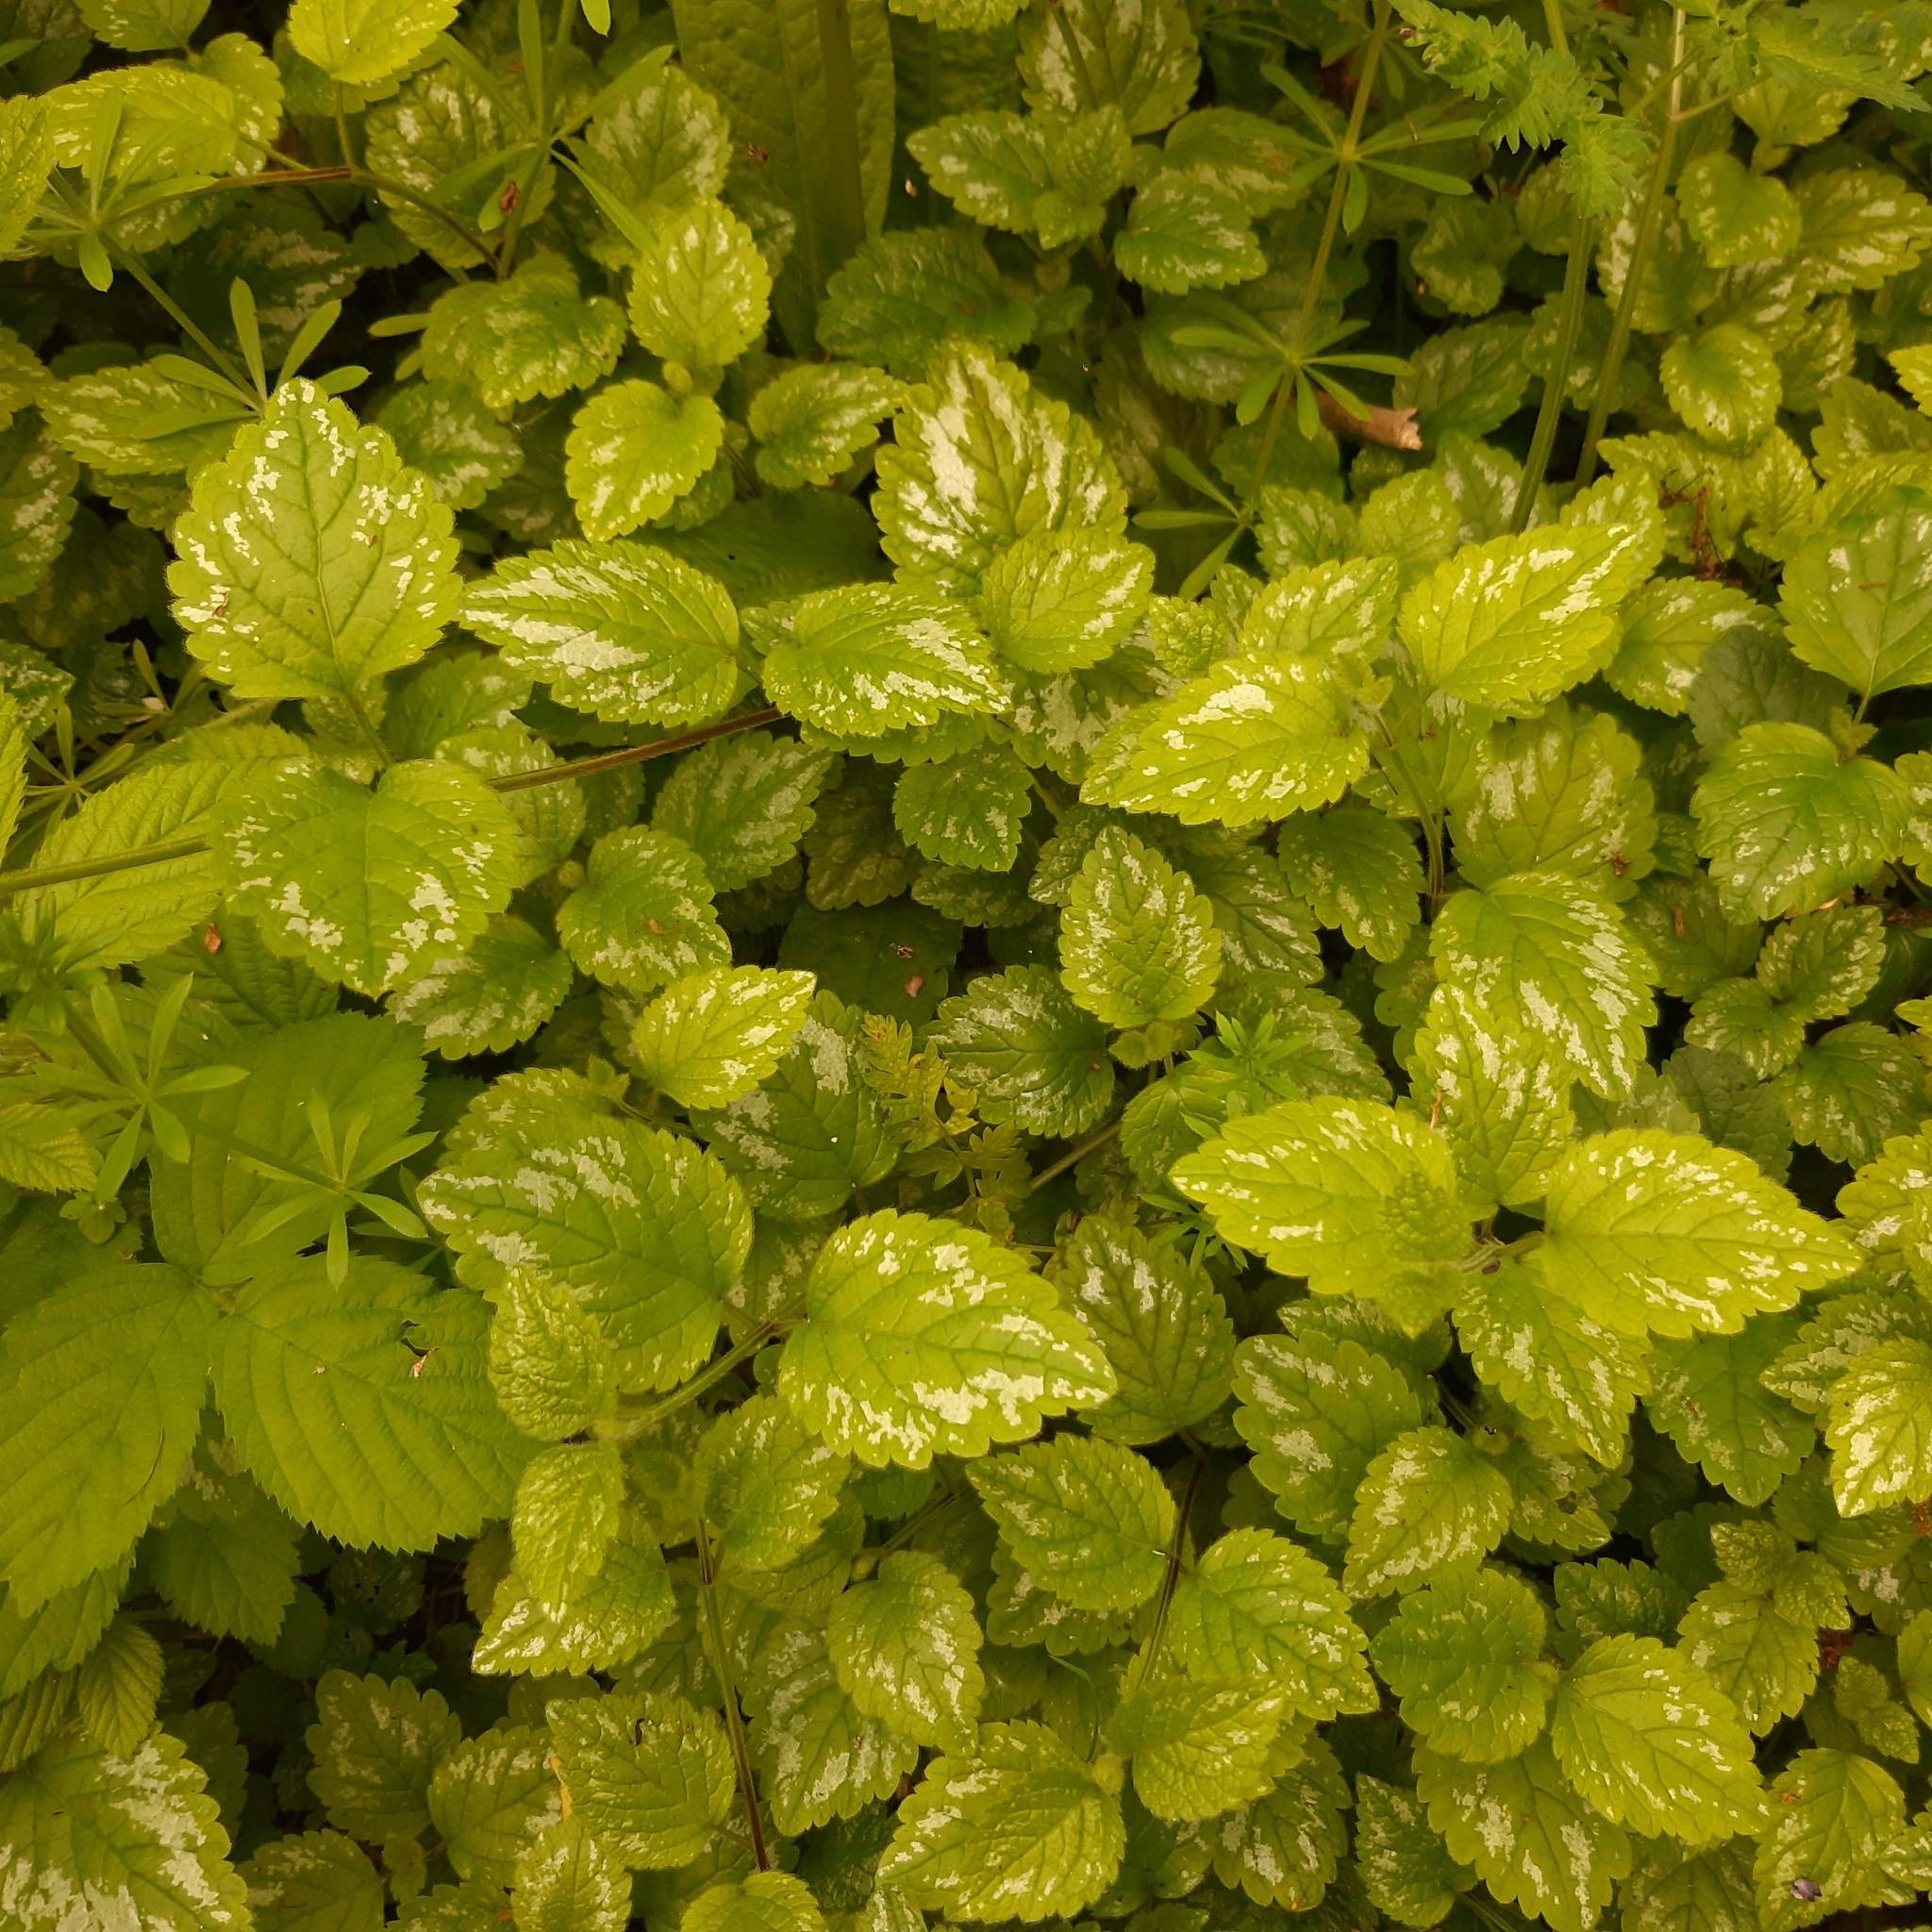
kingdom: Plantae
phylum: Tracheophyta
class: Magnoliopsida
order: Lamiales
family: Lamiaceae
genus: Lamium
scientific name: Lamium galeobdolon
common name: Yellow archangel
